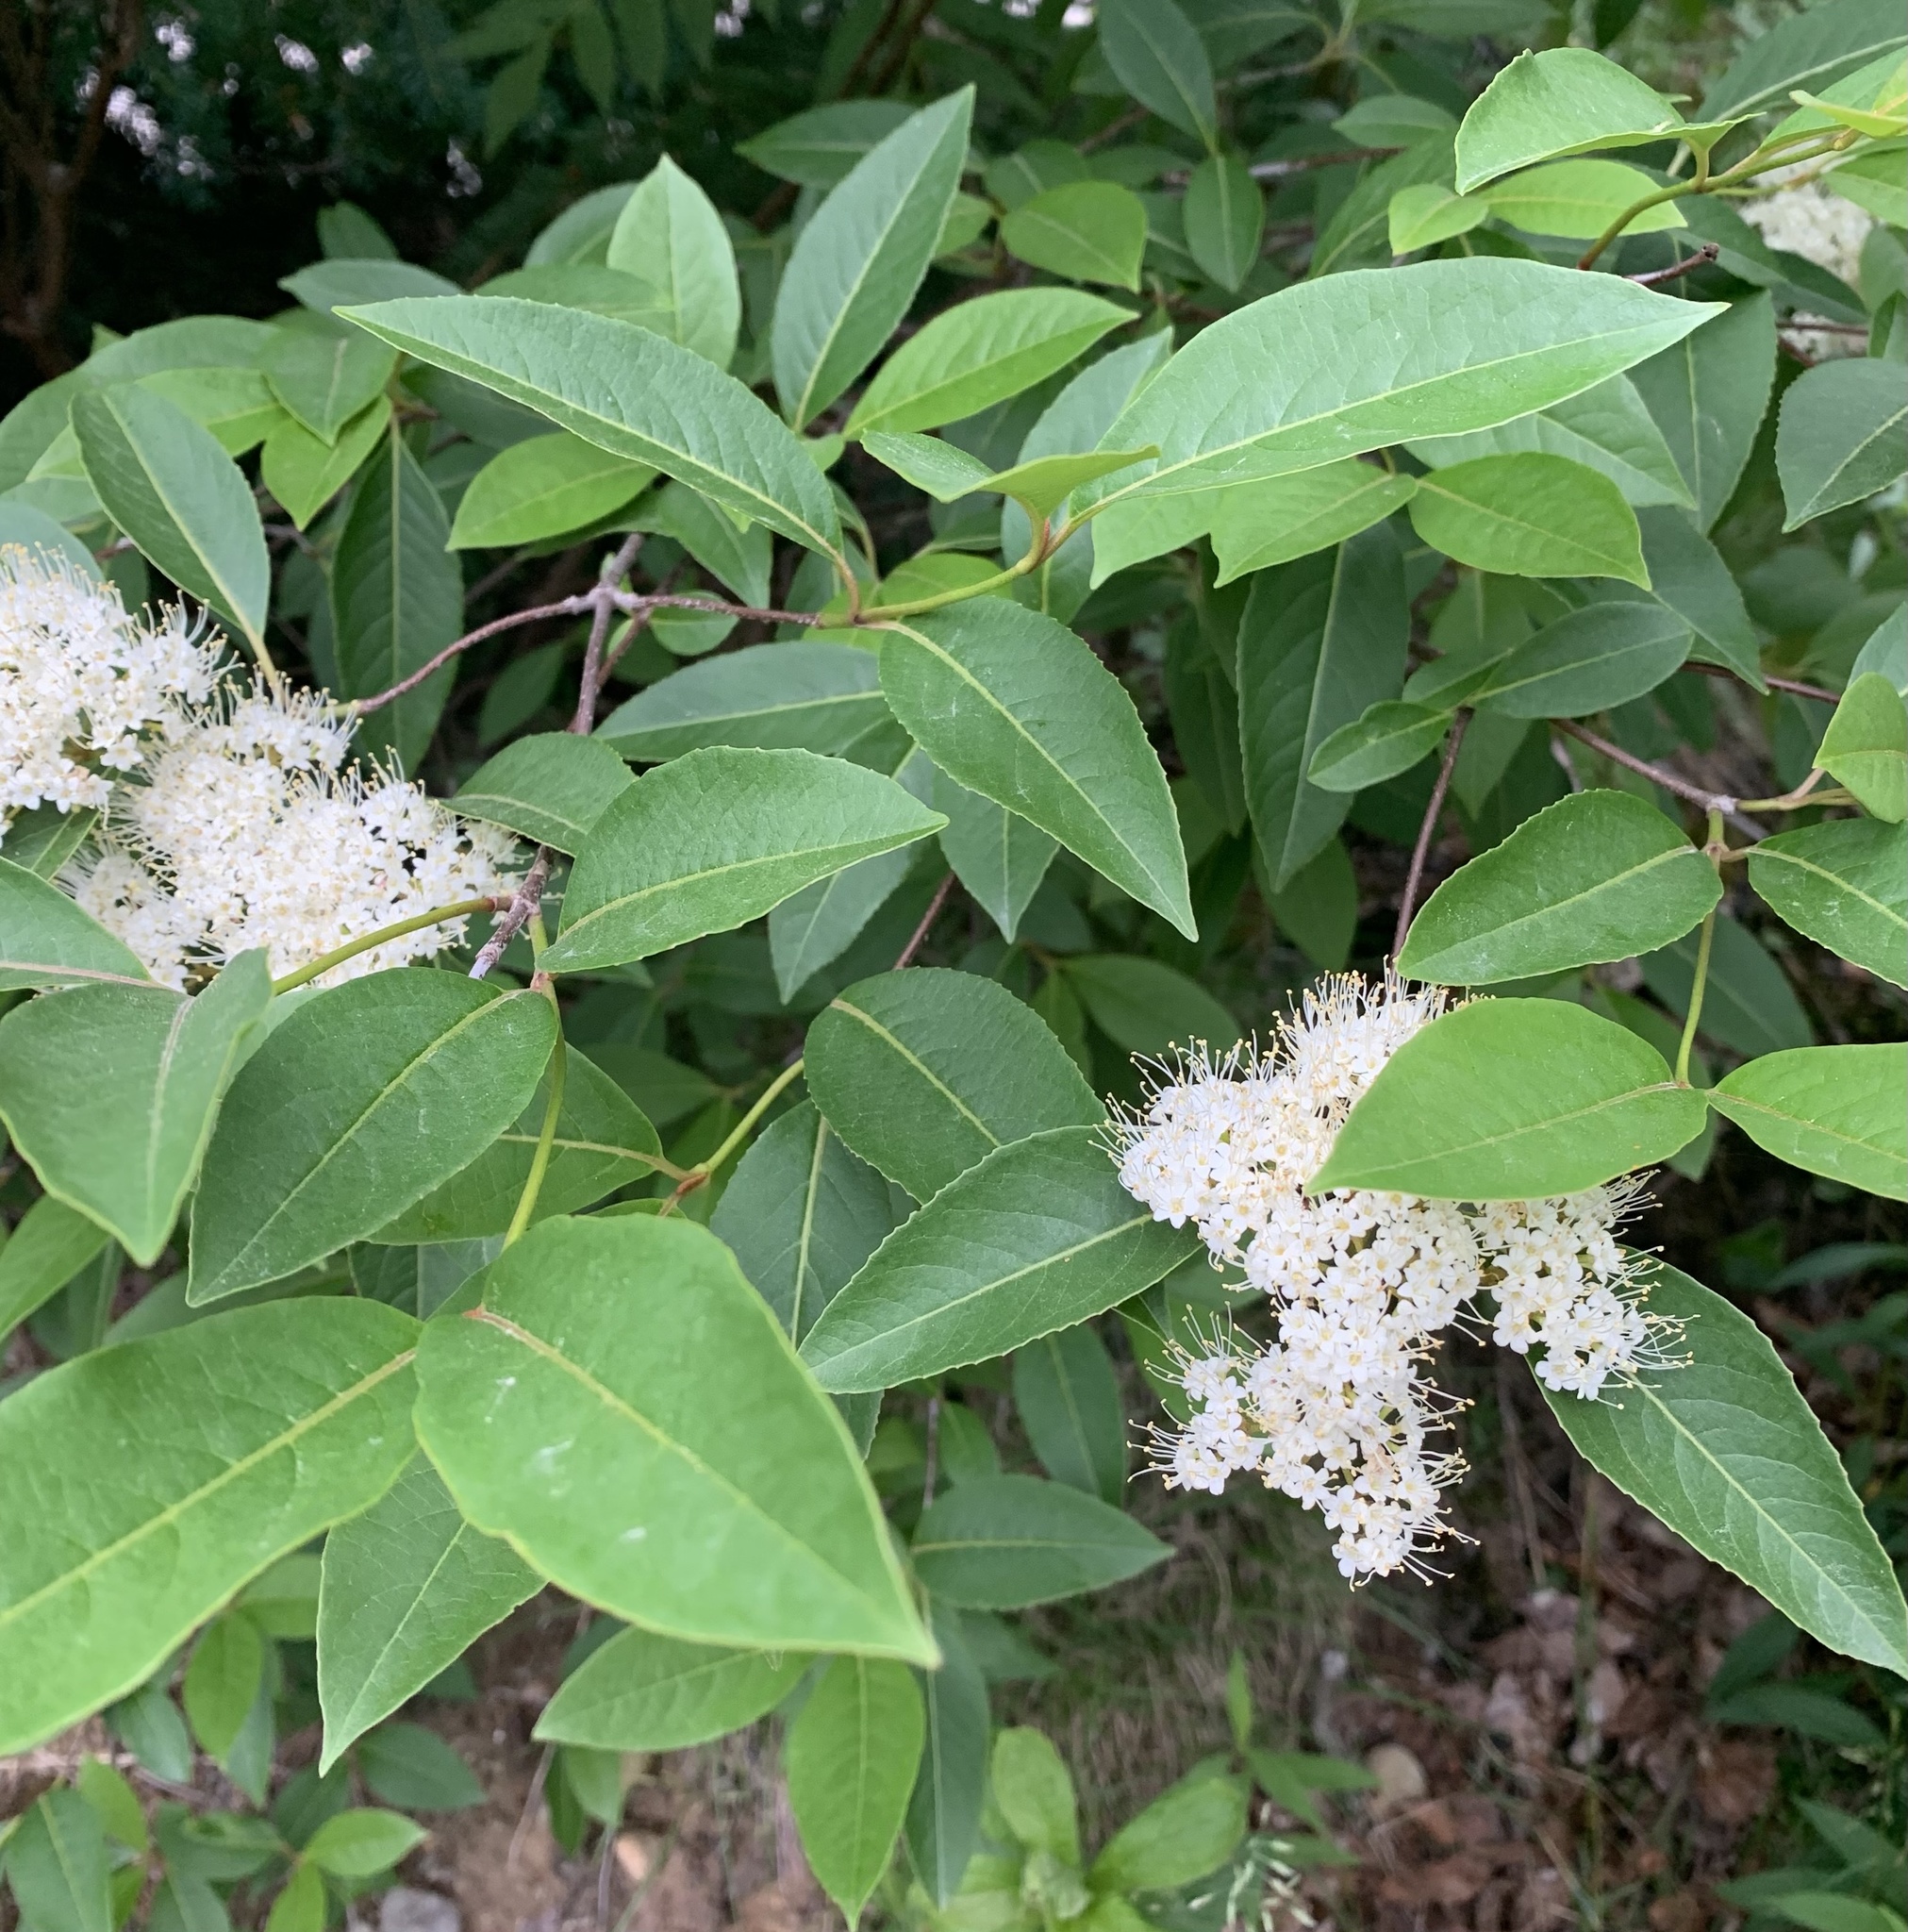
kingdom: Plantae
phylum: Tracheophyta
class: Magnoliopsida
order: Dipsacales
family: Viburnaceae
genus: Viburnum
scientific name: Viburnum cassinoides
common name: Swamp haw
